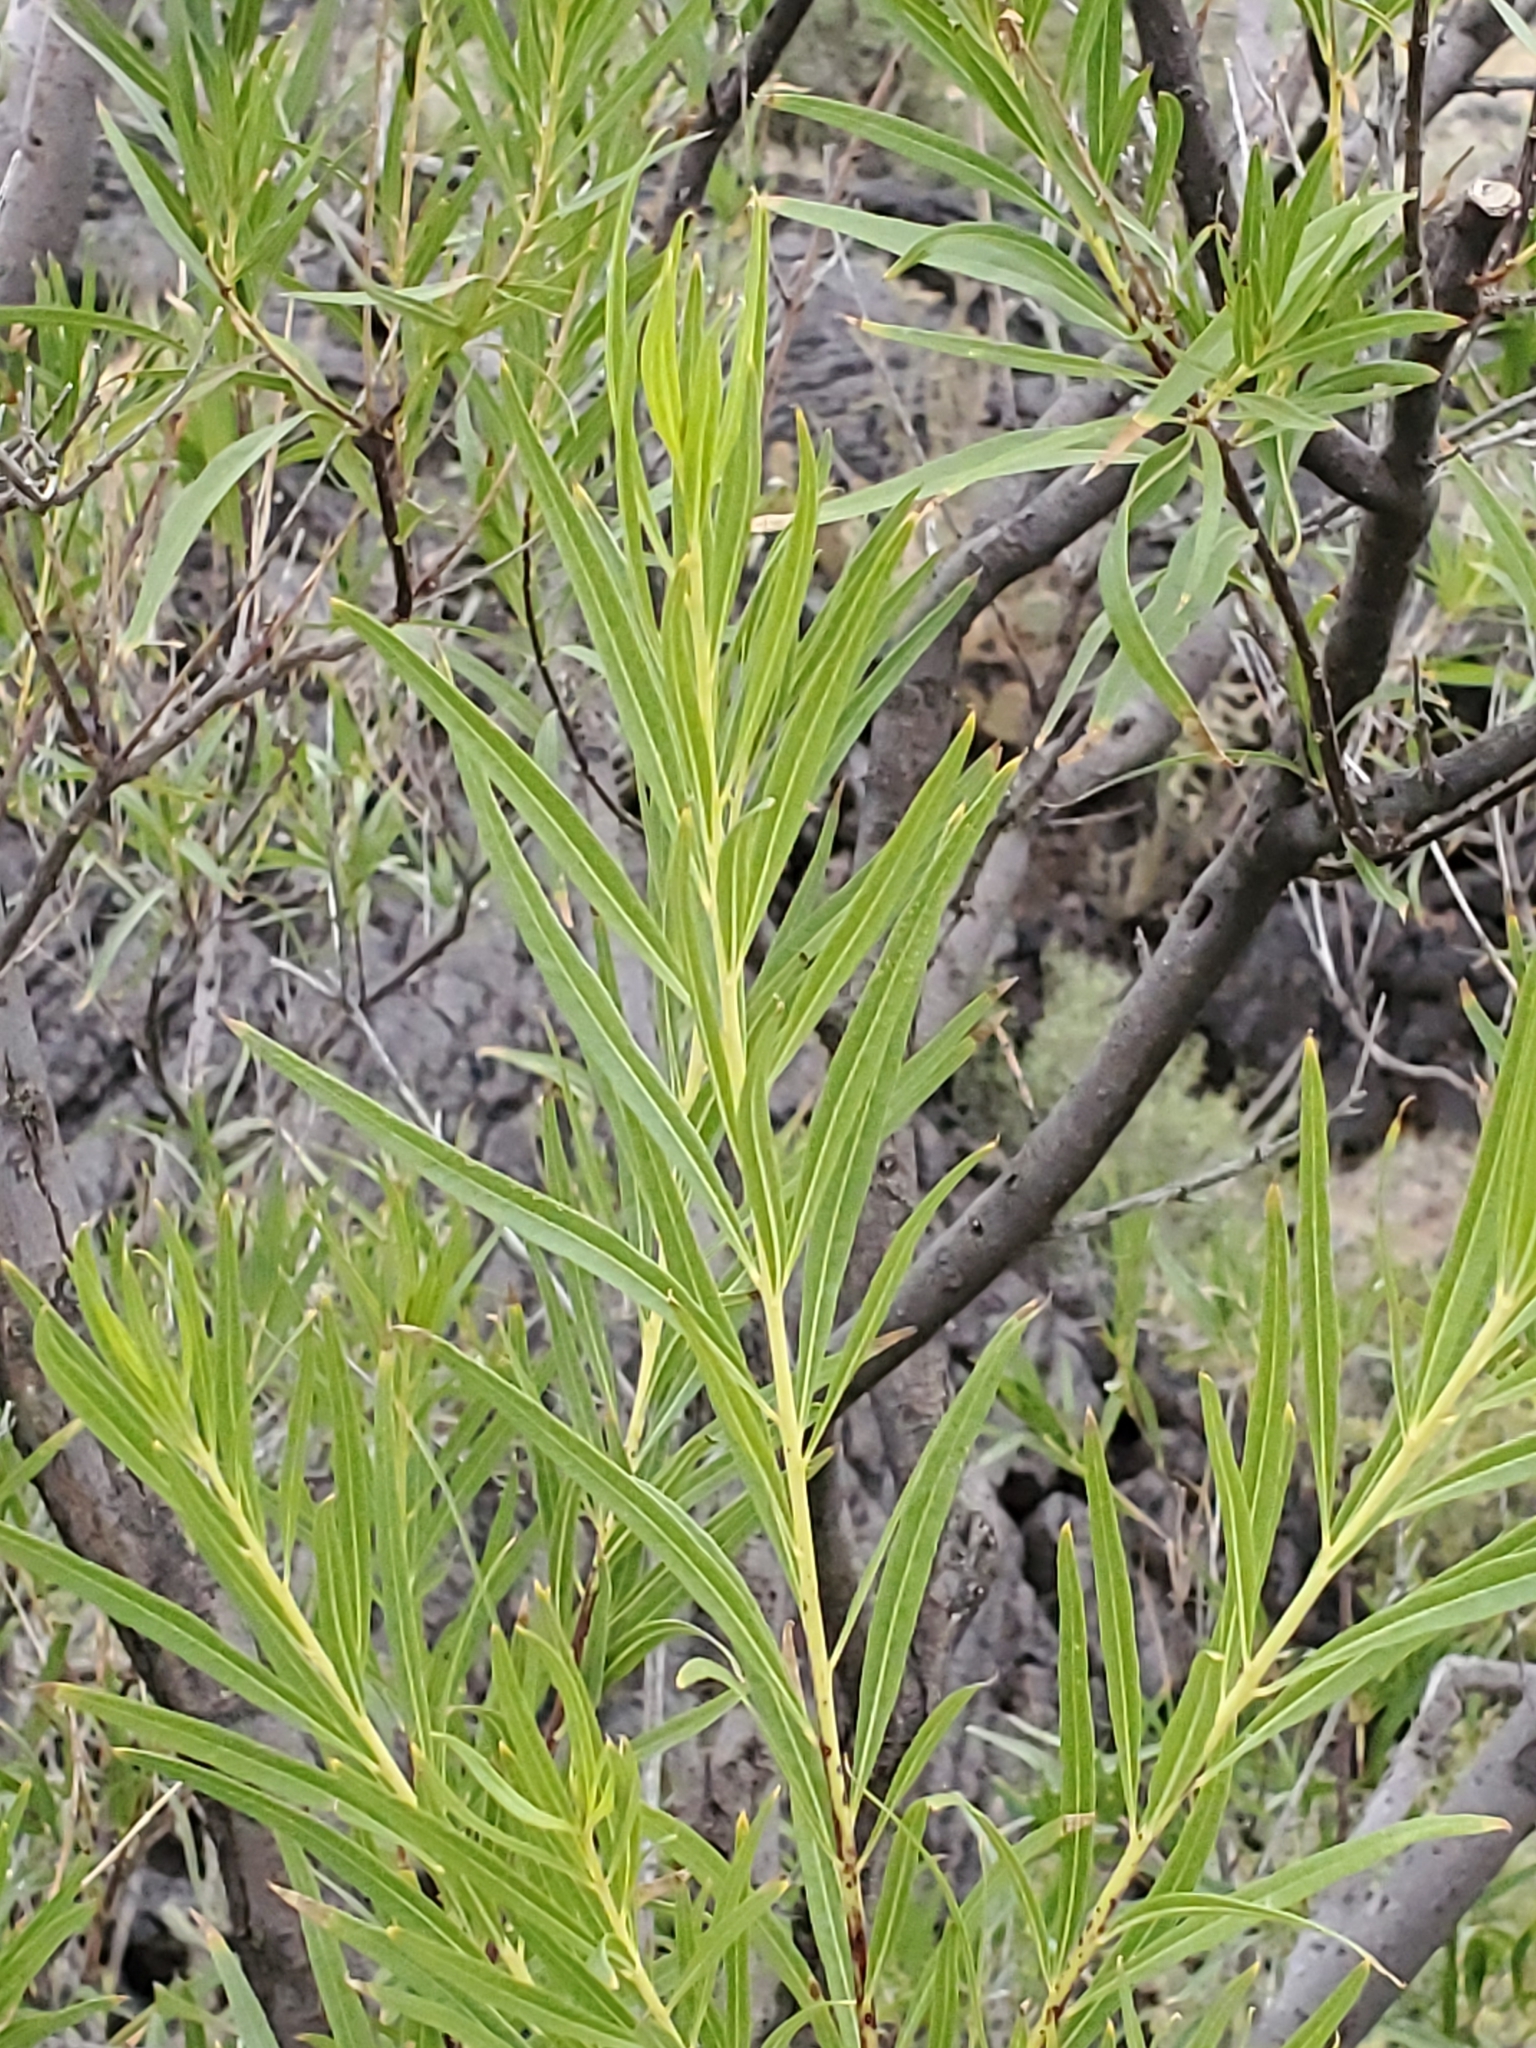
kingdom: Plantae
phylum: Tracheophyta
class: Magnoliopsida
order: Lamiales
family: Bignoniaceae
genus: Chilopsis
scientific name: Chilopsis linearis
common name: Desert-willow
